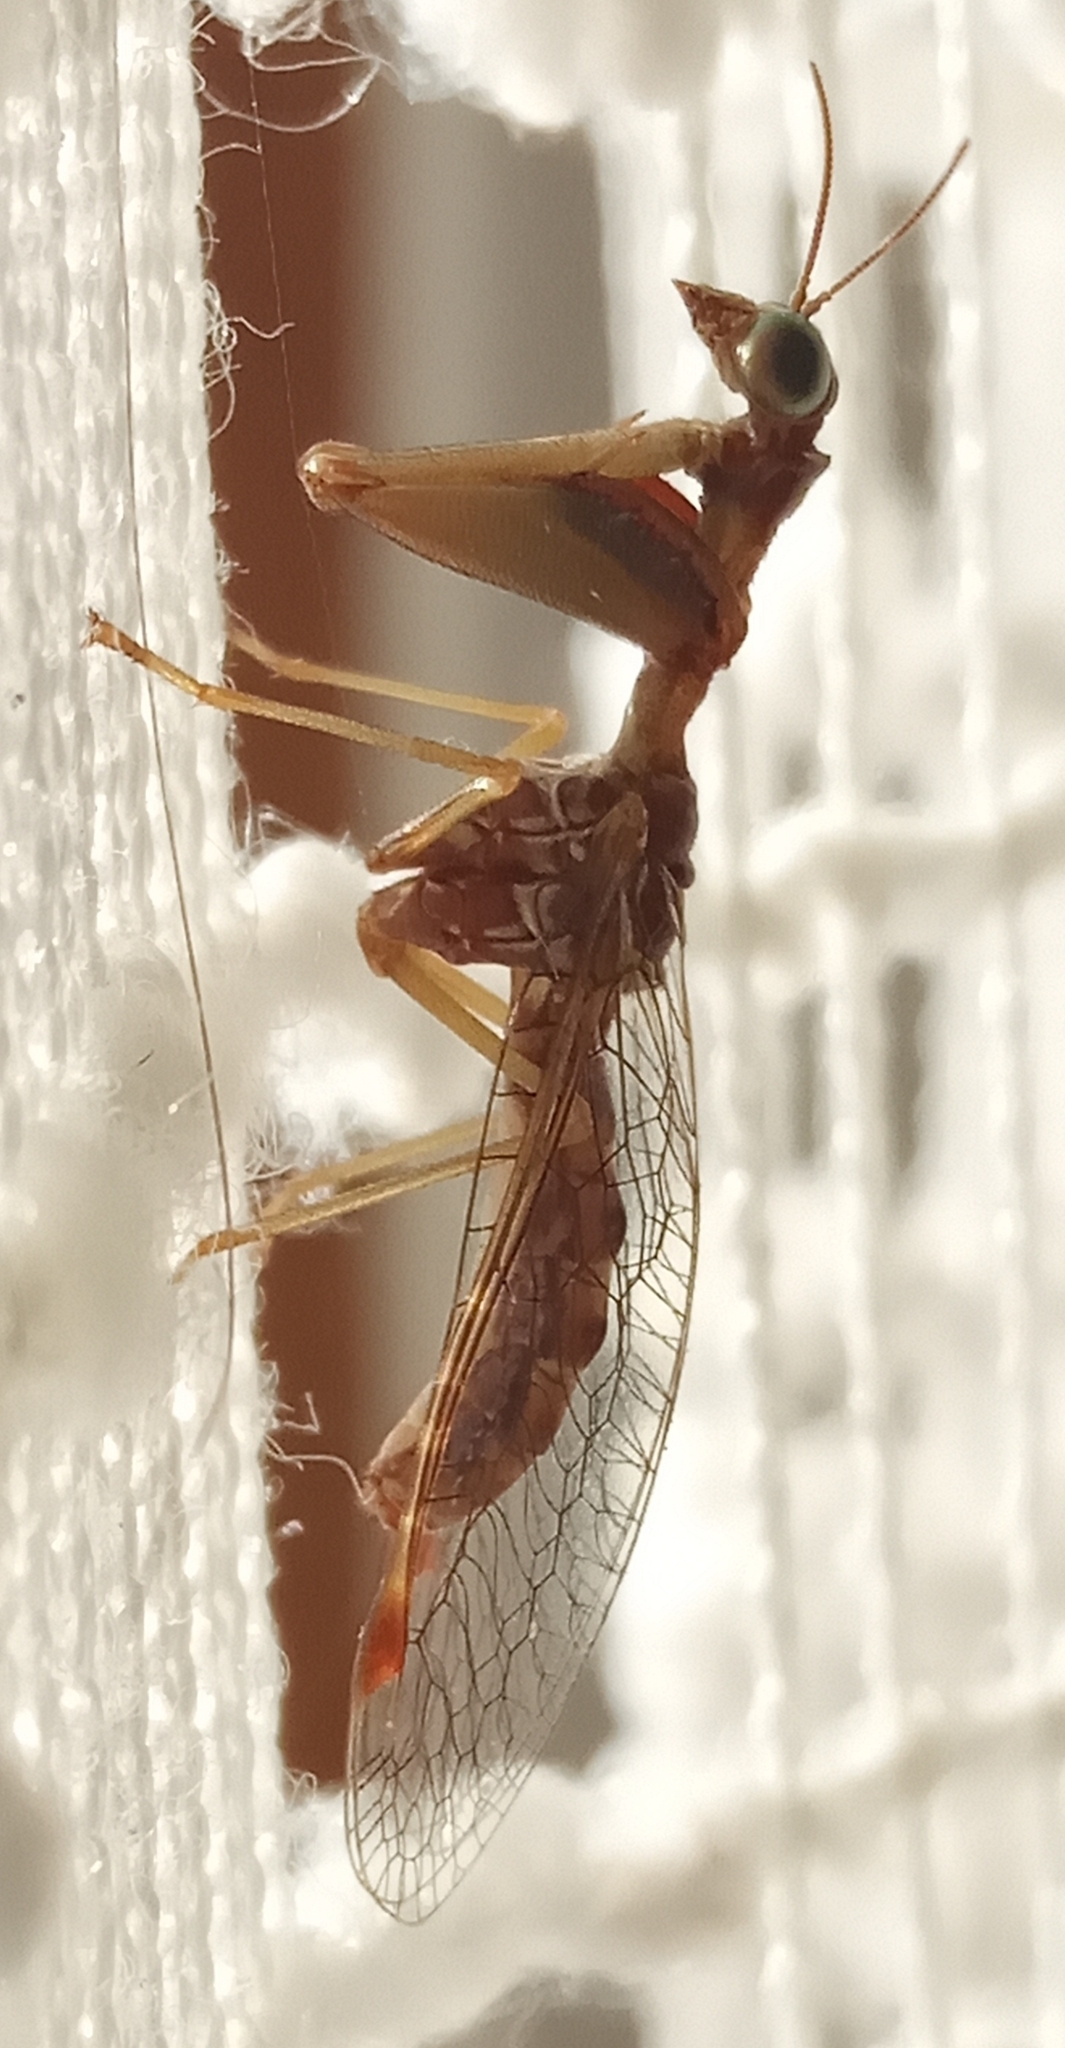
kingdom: Animalia
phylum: Arthropoda
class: Insecta
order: Neuroptera
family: Mantispidae
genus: Mantispa
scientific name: Mantispa styriaca
